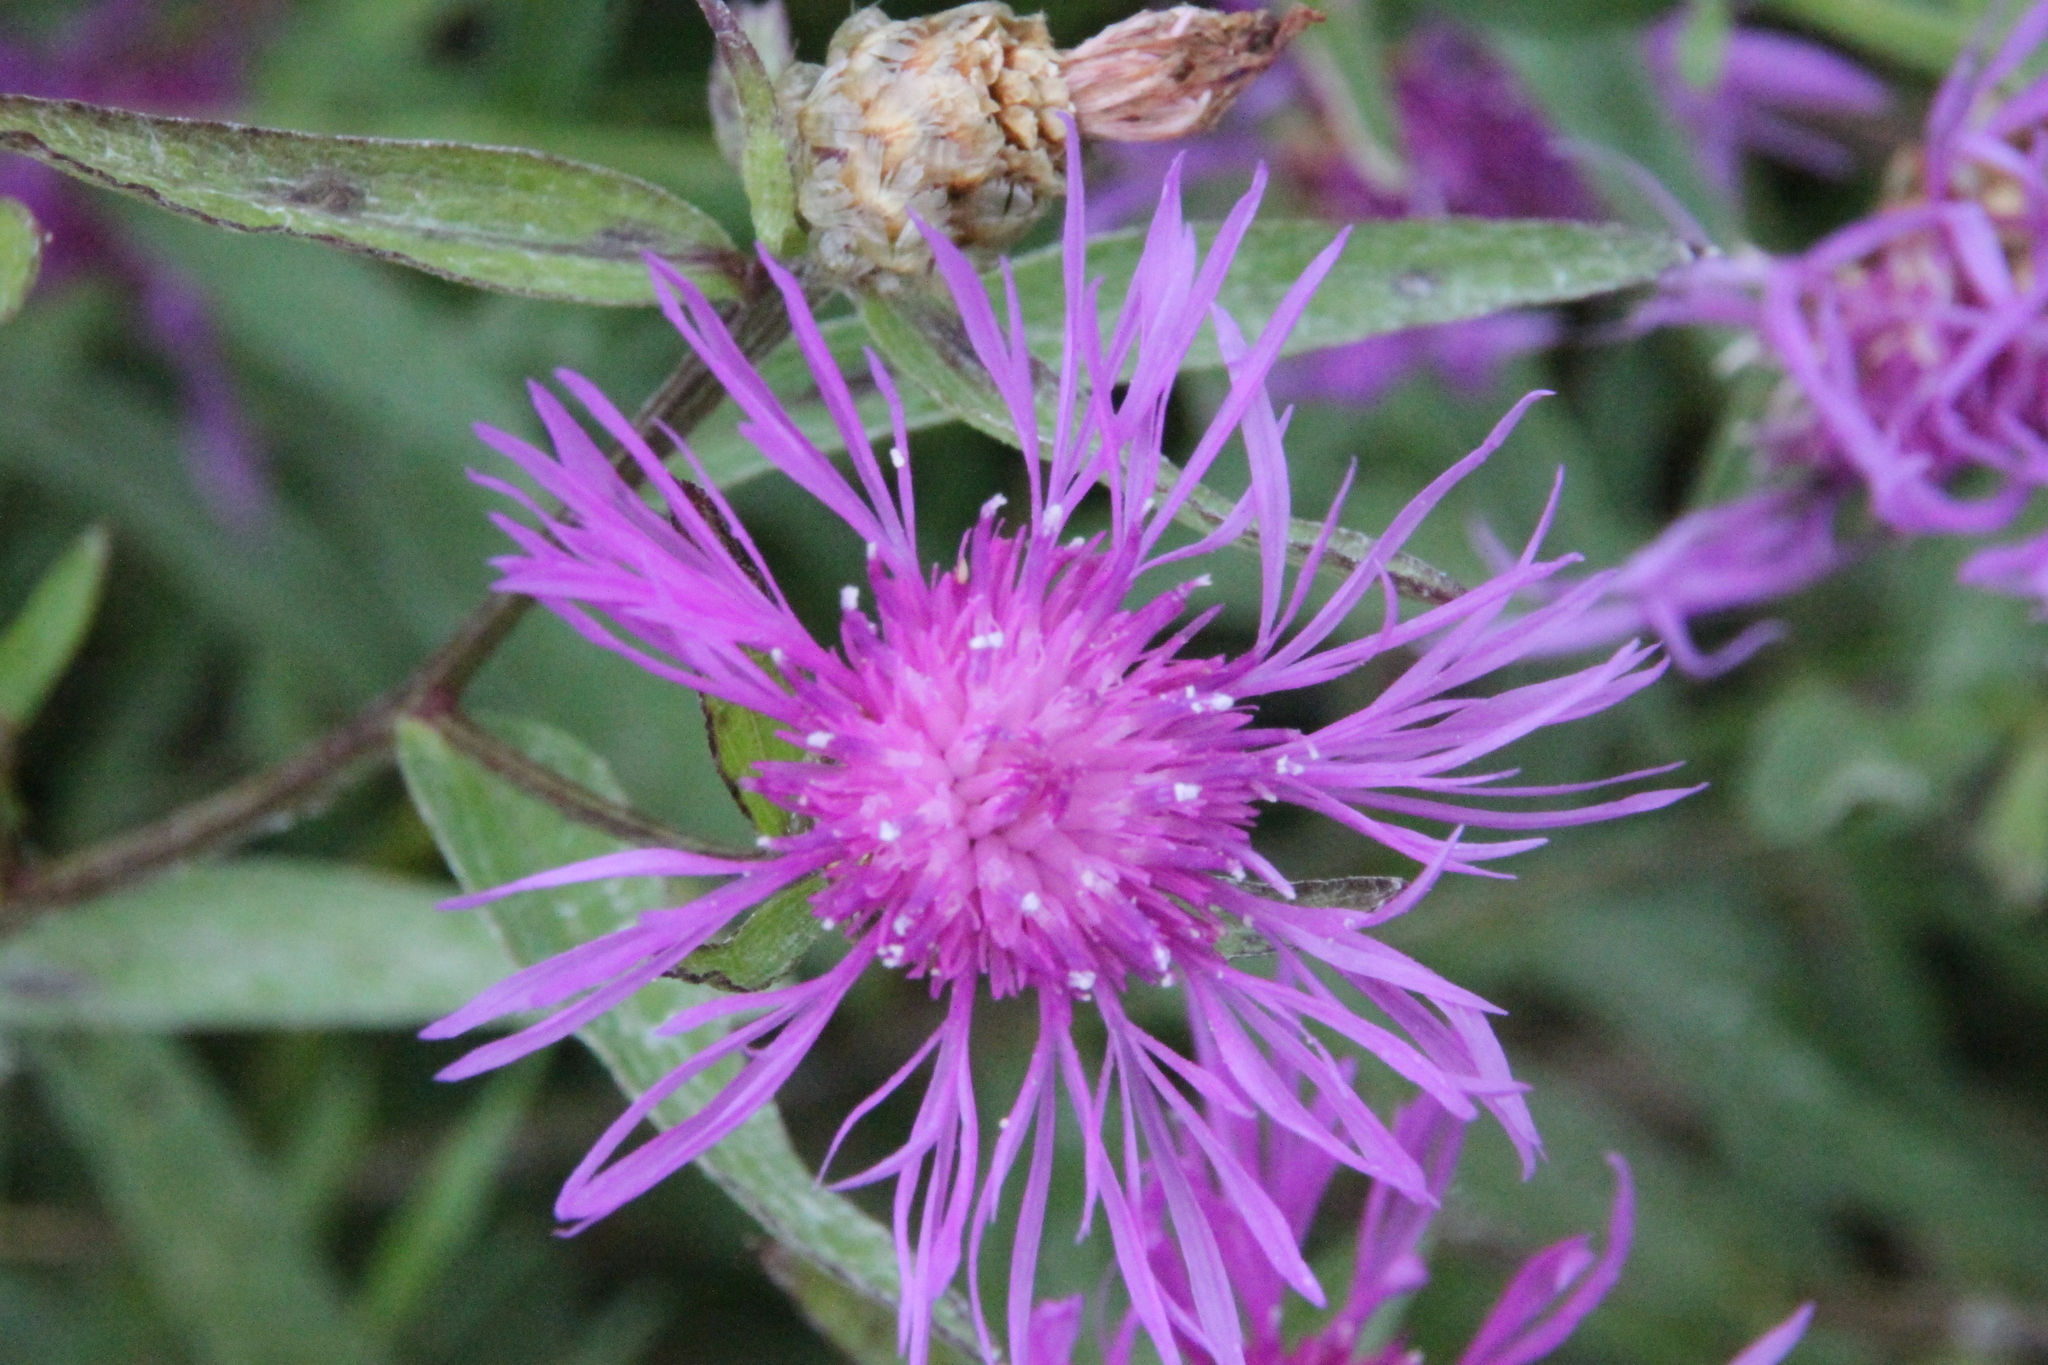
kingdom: Plantae
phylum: Tracheophyta
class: Magnoliopsida
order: Asterales
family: Asteraceae
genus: Centaurea
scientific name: Centaurea jacea
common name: Brown knapweed
